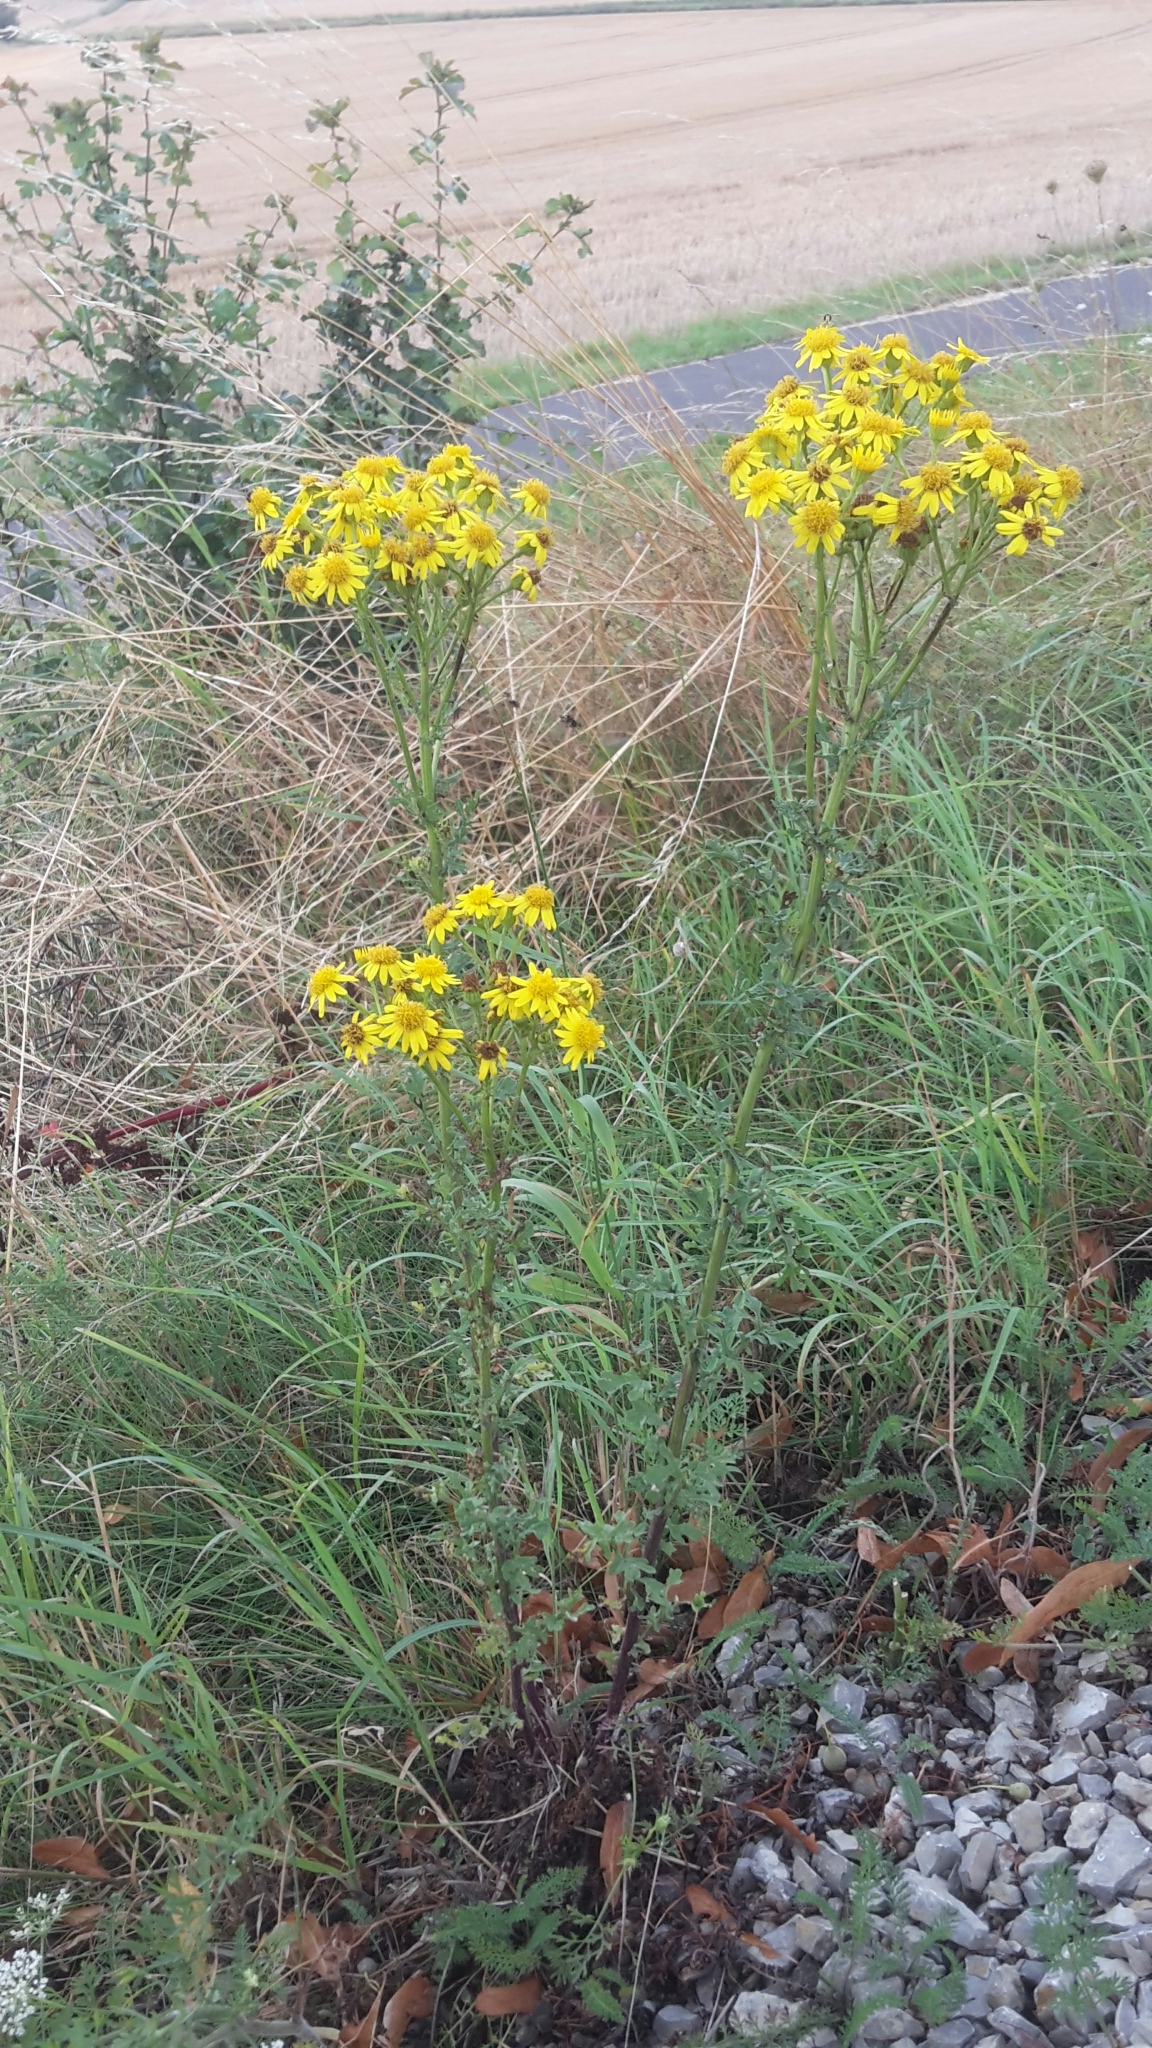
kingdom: Plantae
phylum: Tracheophyta
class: Magnoliopsida
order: Asterales
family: Asteraceae
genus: Jacobaea
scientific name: Jacobaea vulgaris
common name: Stinking willie
